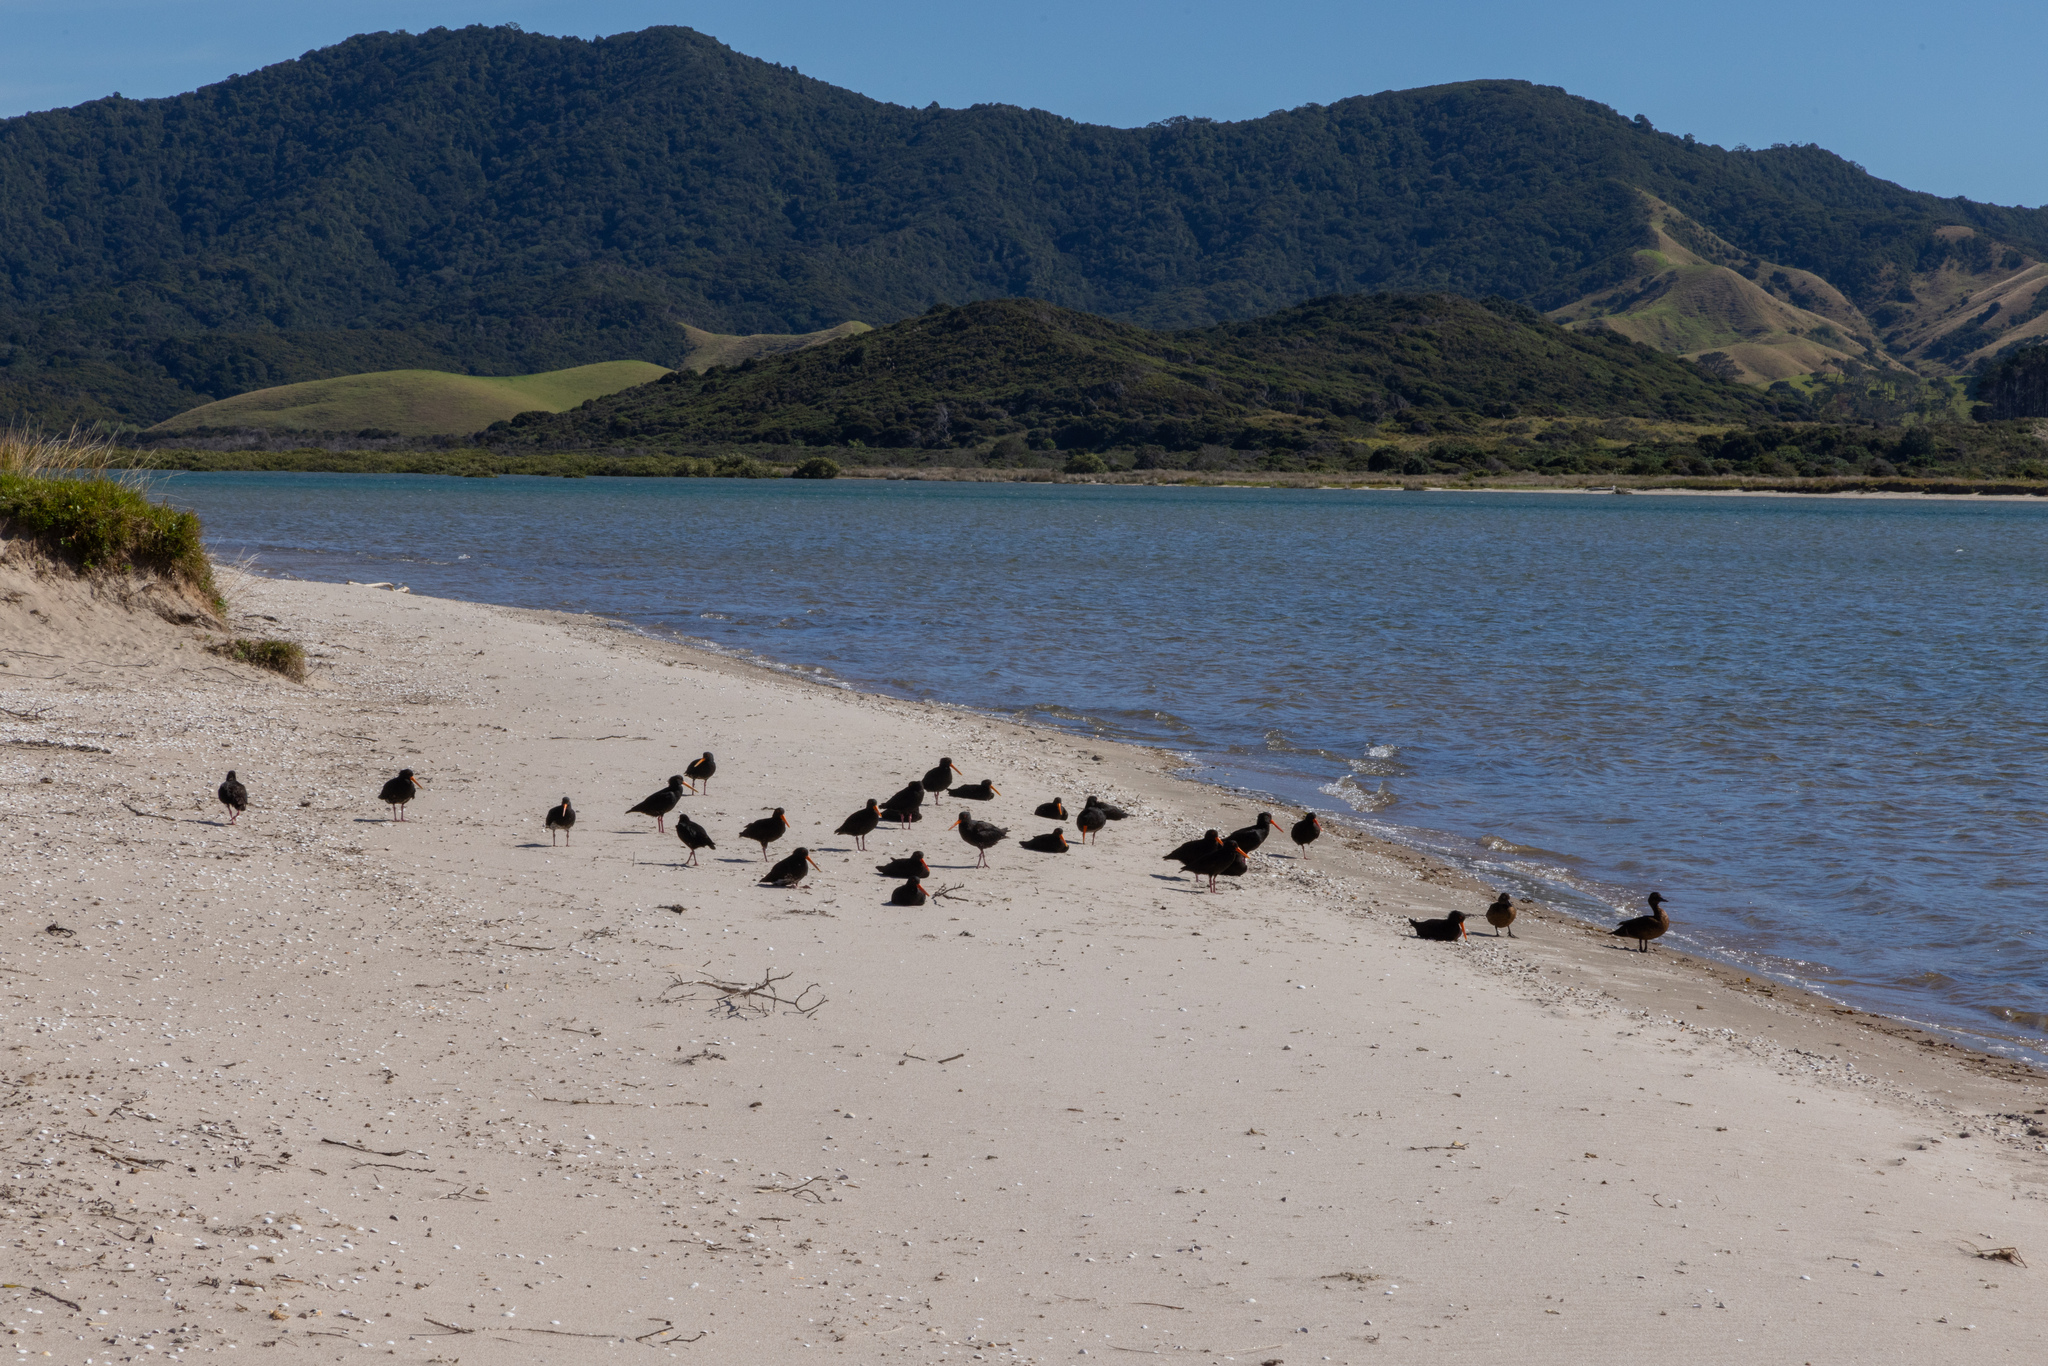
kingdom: Animalia
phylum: Chordata
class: Aves
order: Charadriiformes
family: Haematopodidae
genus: Haematopus
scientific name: Haematopus unicolor
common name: Variable oystercatcher
